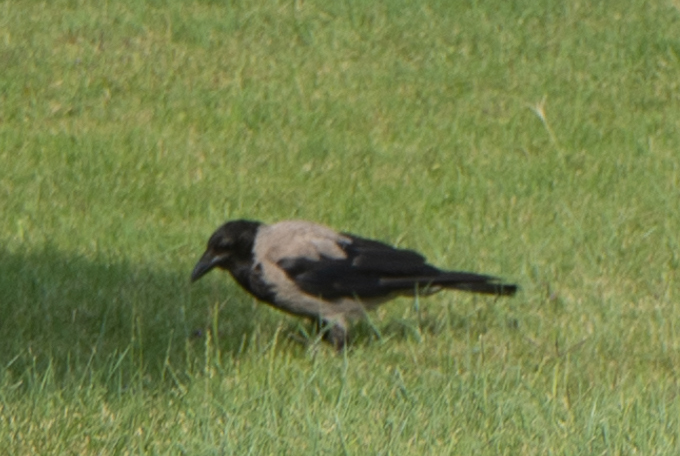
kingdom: Animalia
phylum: Chordata
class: Aves
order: Passeriformes
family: Corvidae
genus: Corvus
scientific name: Corvus cornix
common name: Hooded crow
